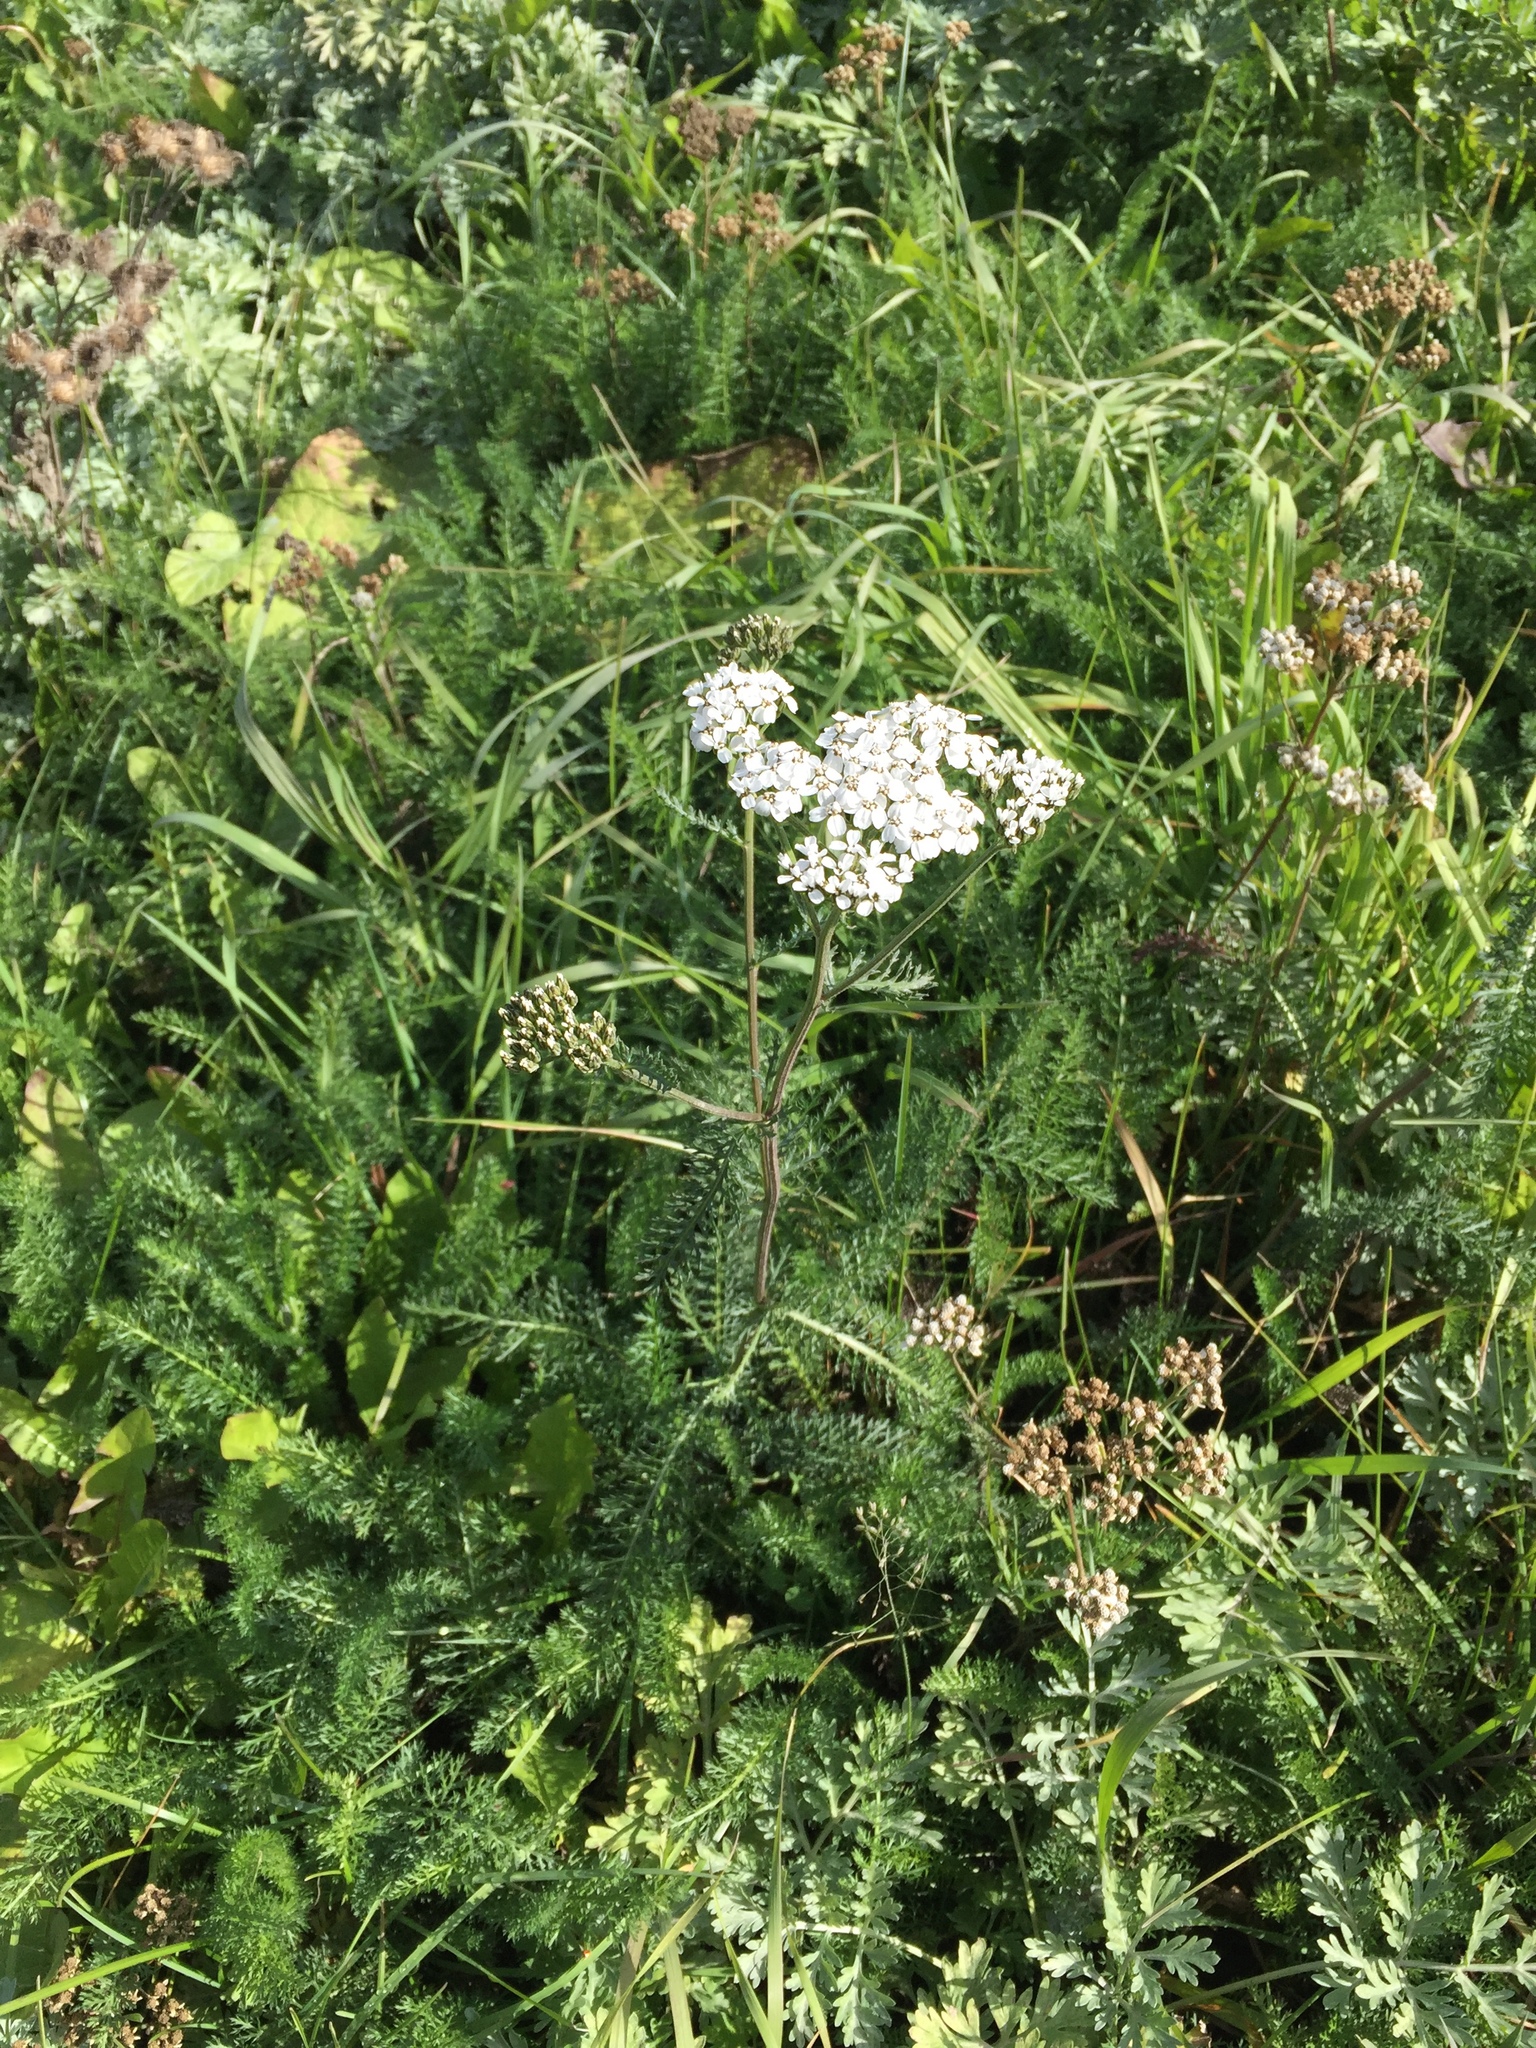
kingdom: Plantae
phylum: Tracheophyta
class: Magnoliopsida
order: Asterales
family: Asteraceae
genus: Achillea
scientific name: Achillea millefolium
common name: Yarrow
